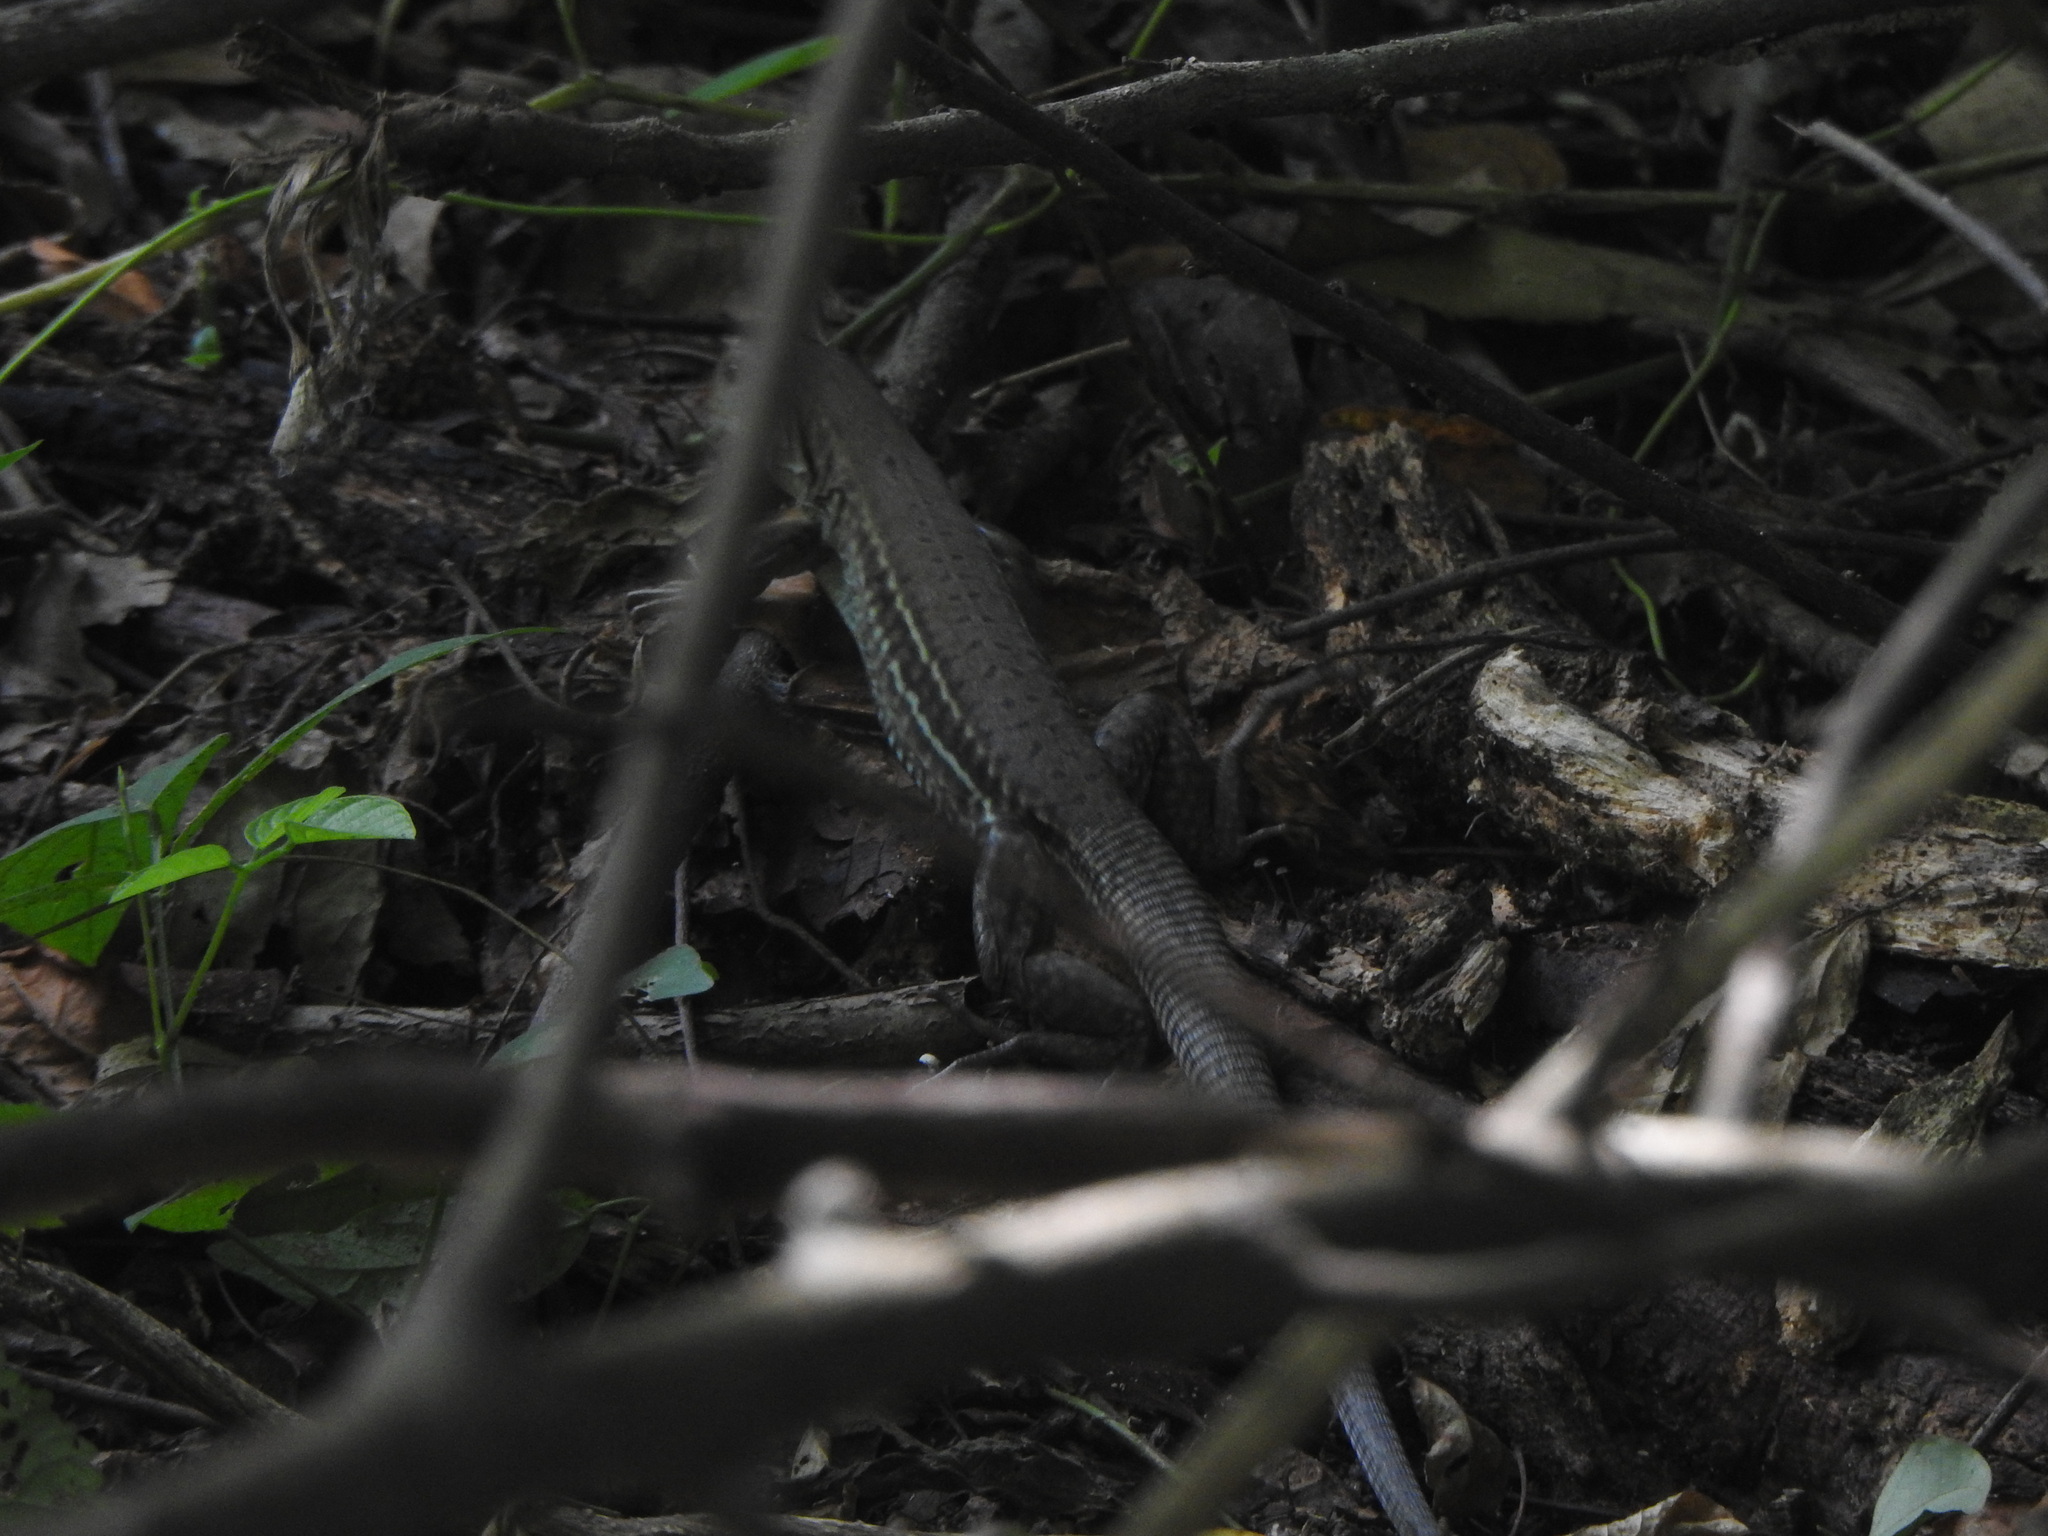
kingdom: Animalia
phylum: Chordata
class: Squamata
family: Teiidae
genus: Ameiva
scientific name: Ameiva bifrontata
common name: Cope's ameiva
